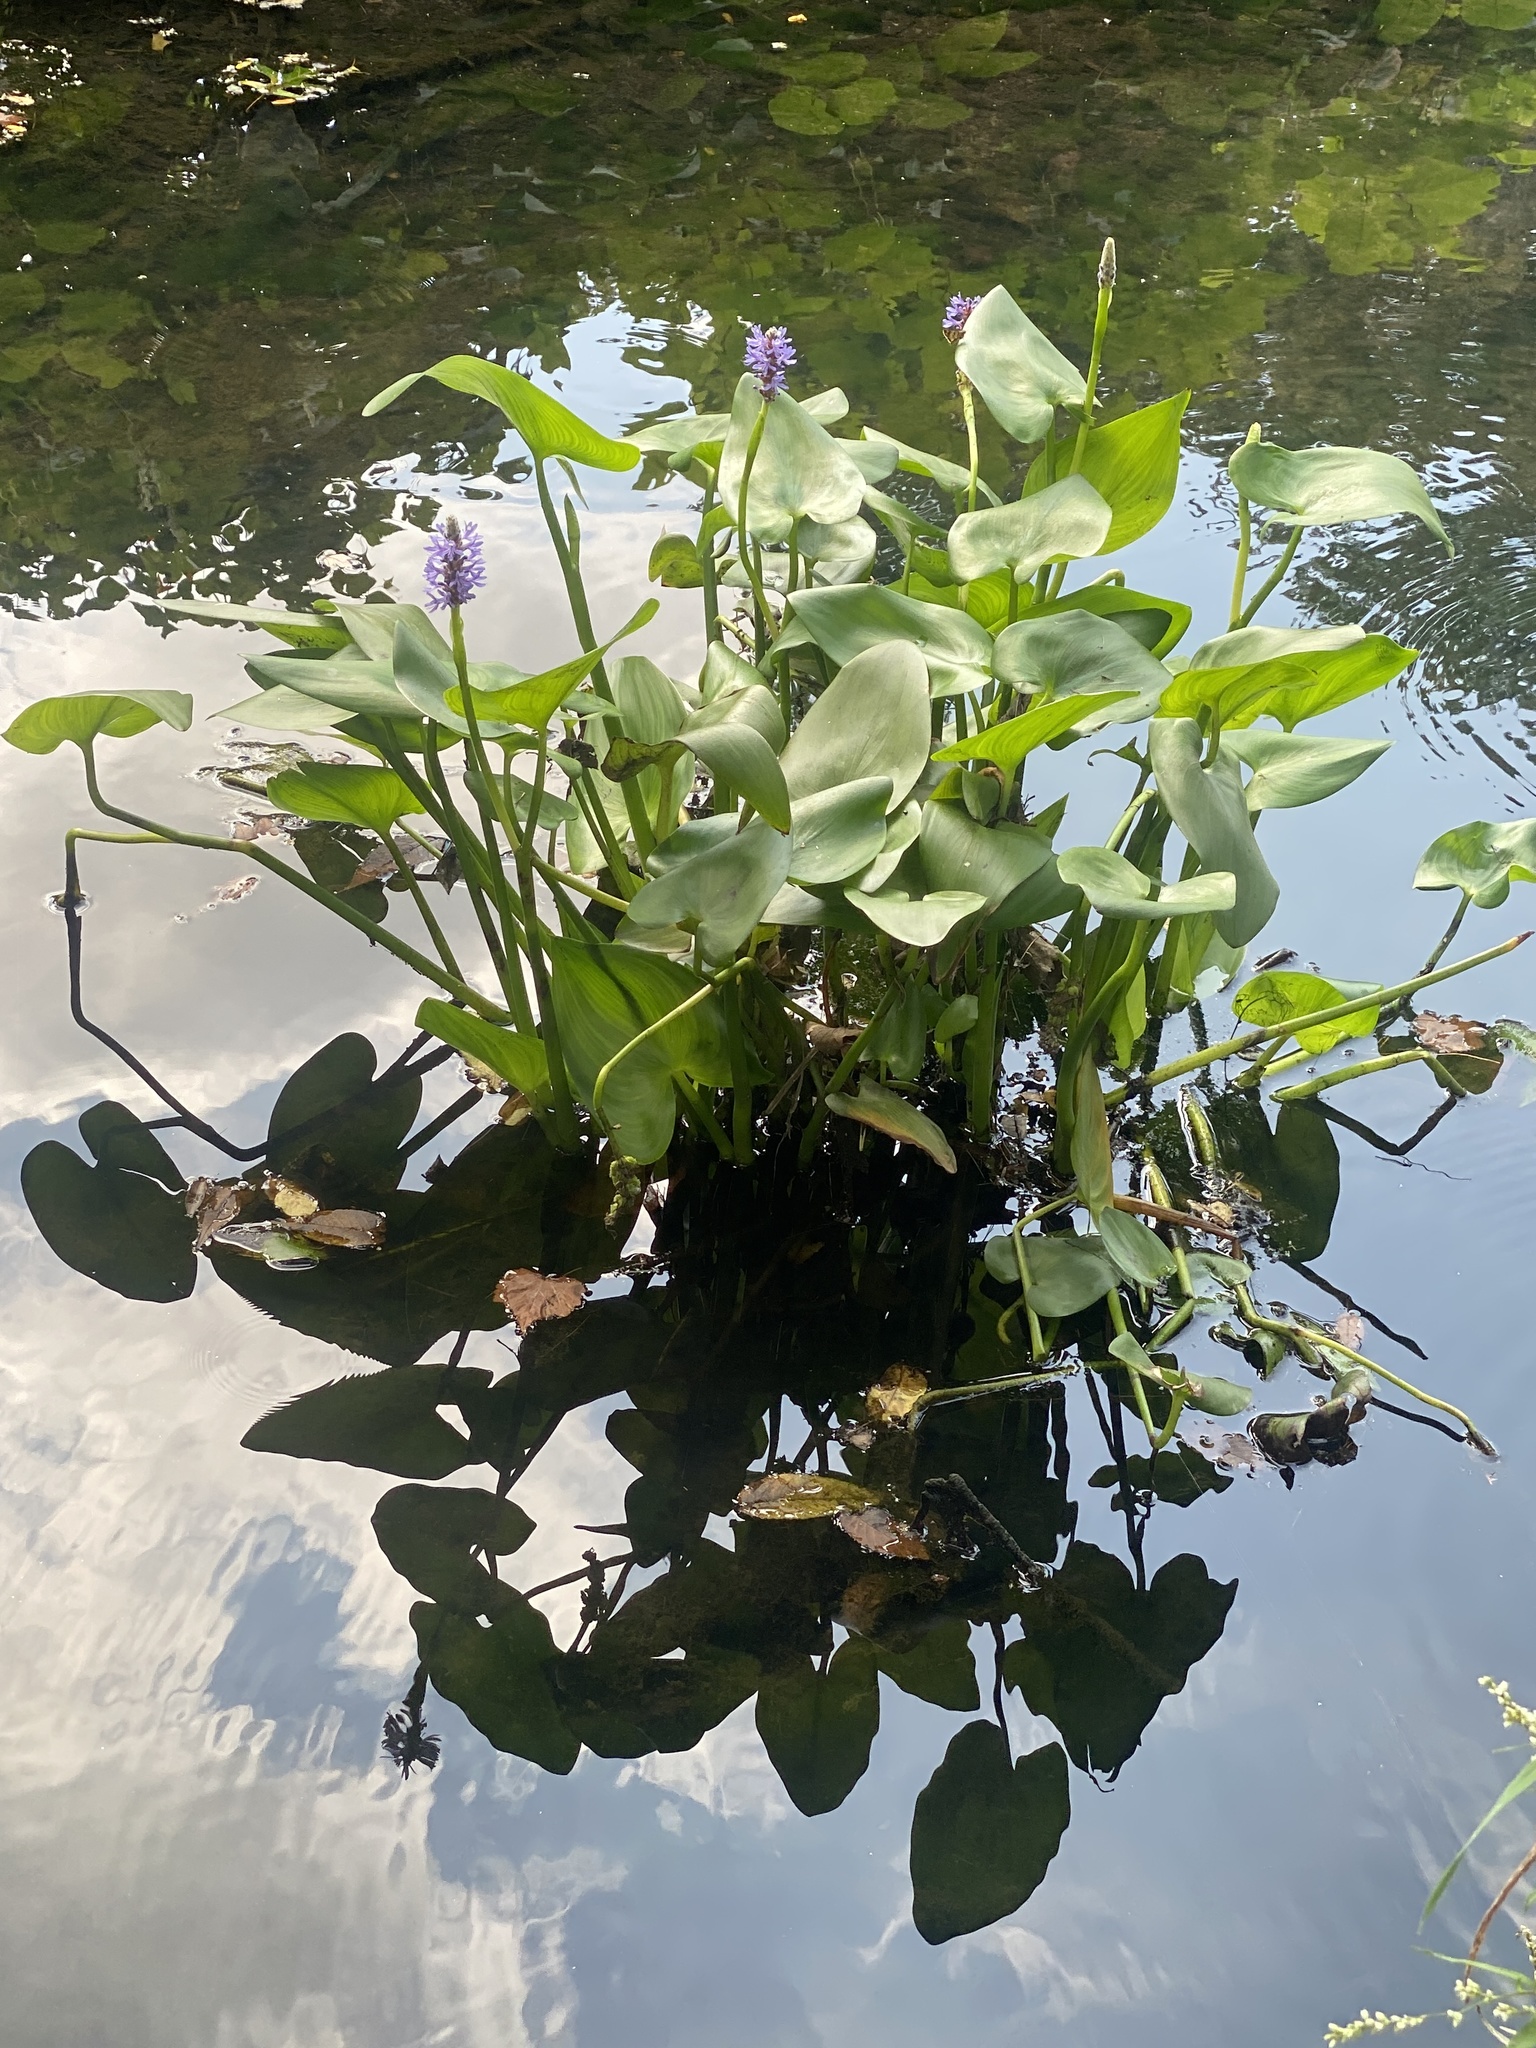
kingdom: Plantae
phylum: Tracheophyta
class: Liliopsida
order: Commelinales
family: Pontederiaceae
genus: Pontederia
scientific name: Pontederia cordata
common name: Pickerelweed
